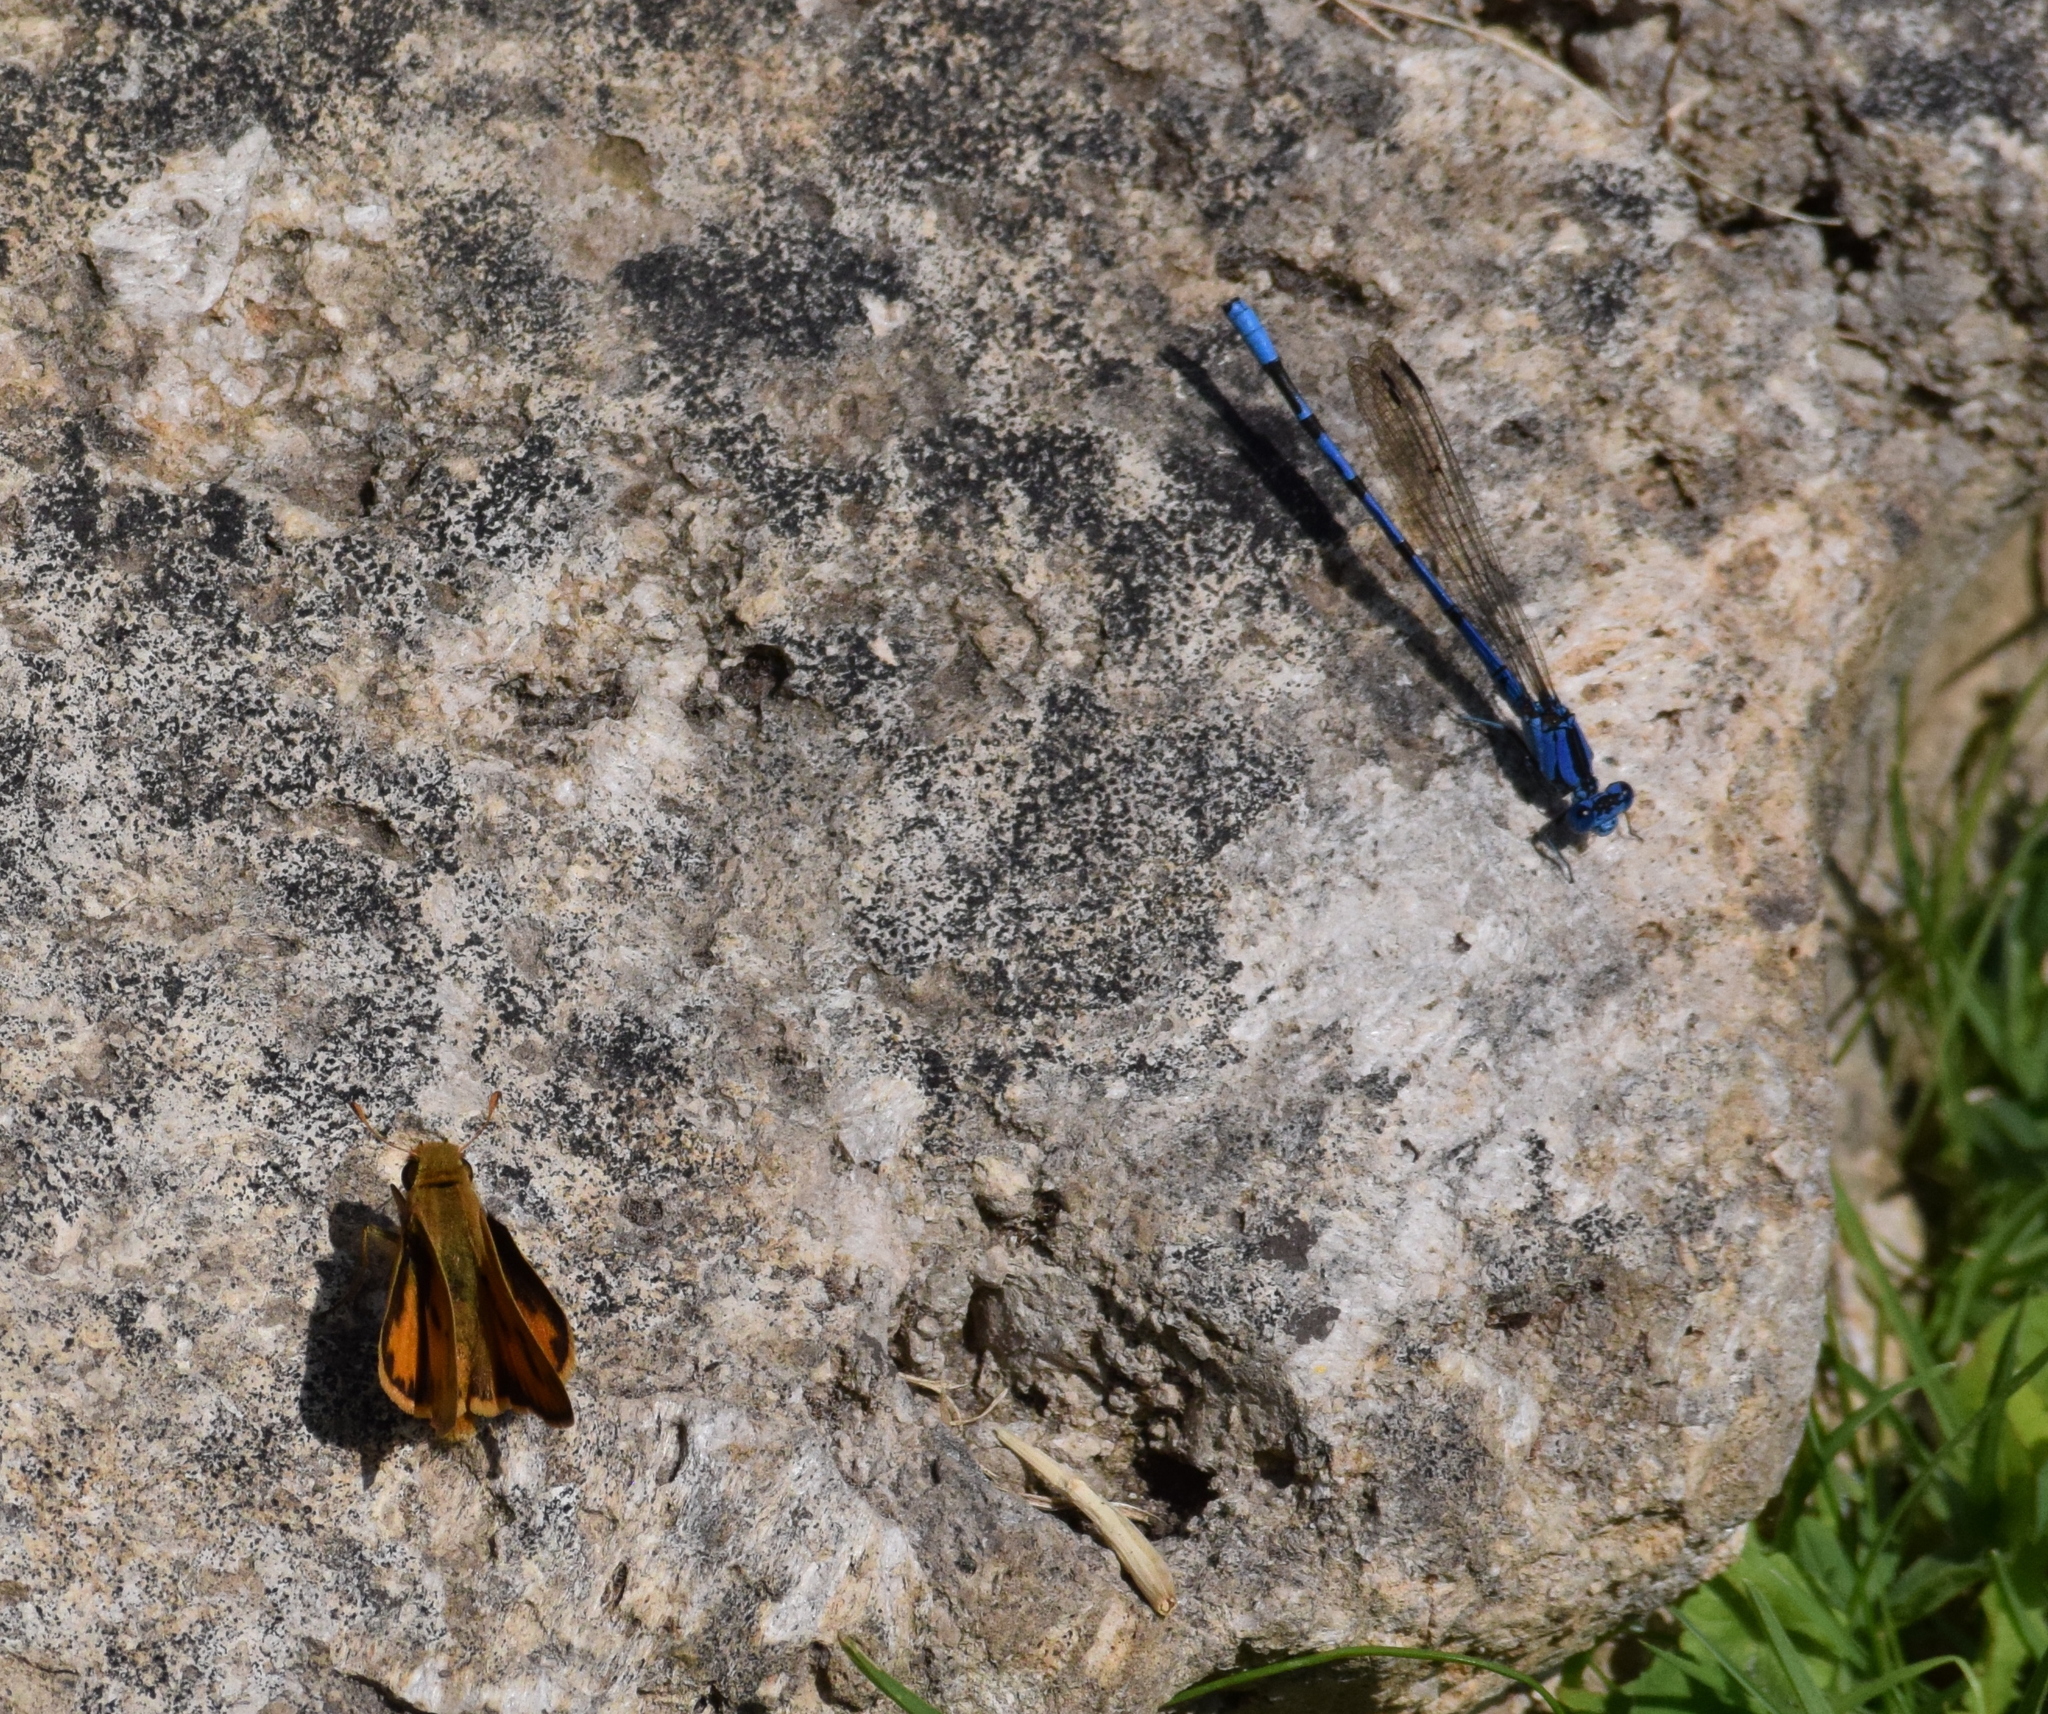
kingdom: Animalia
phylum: Arthropoda
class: Insecta
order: Lepidoptera
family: Hesperiidae
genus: Hylephila
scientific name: Hylephila phyleus
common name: Fiery skipper
